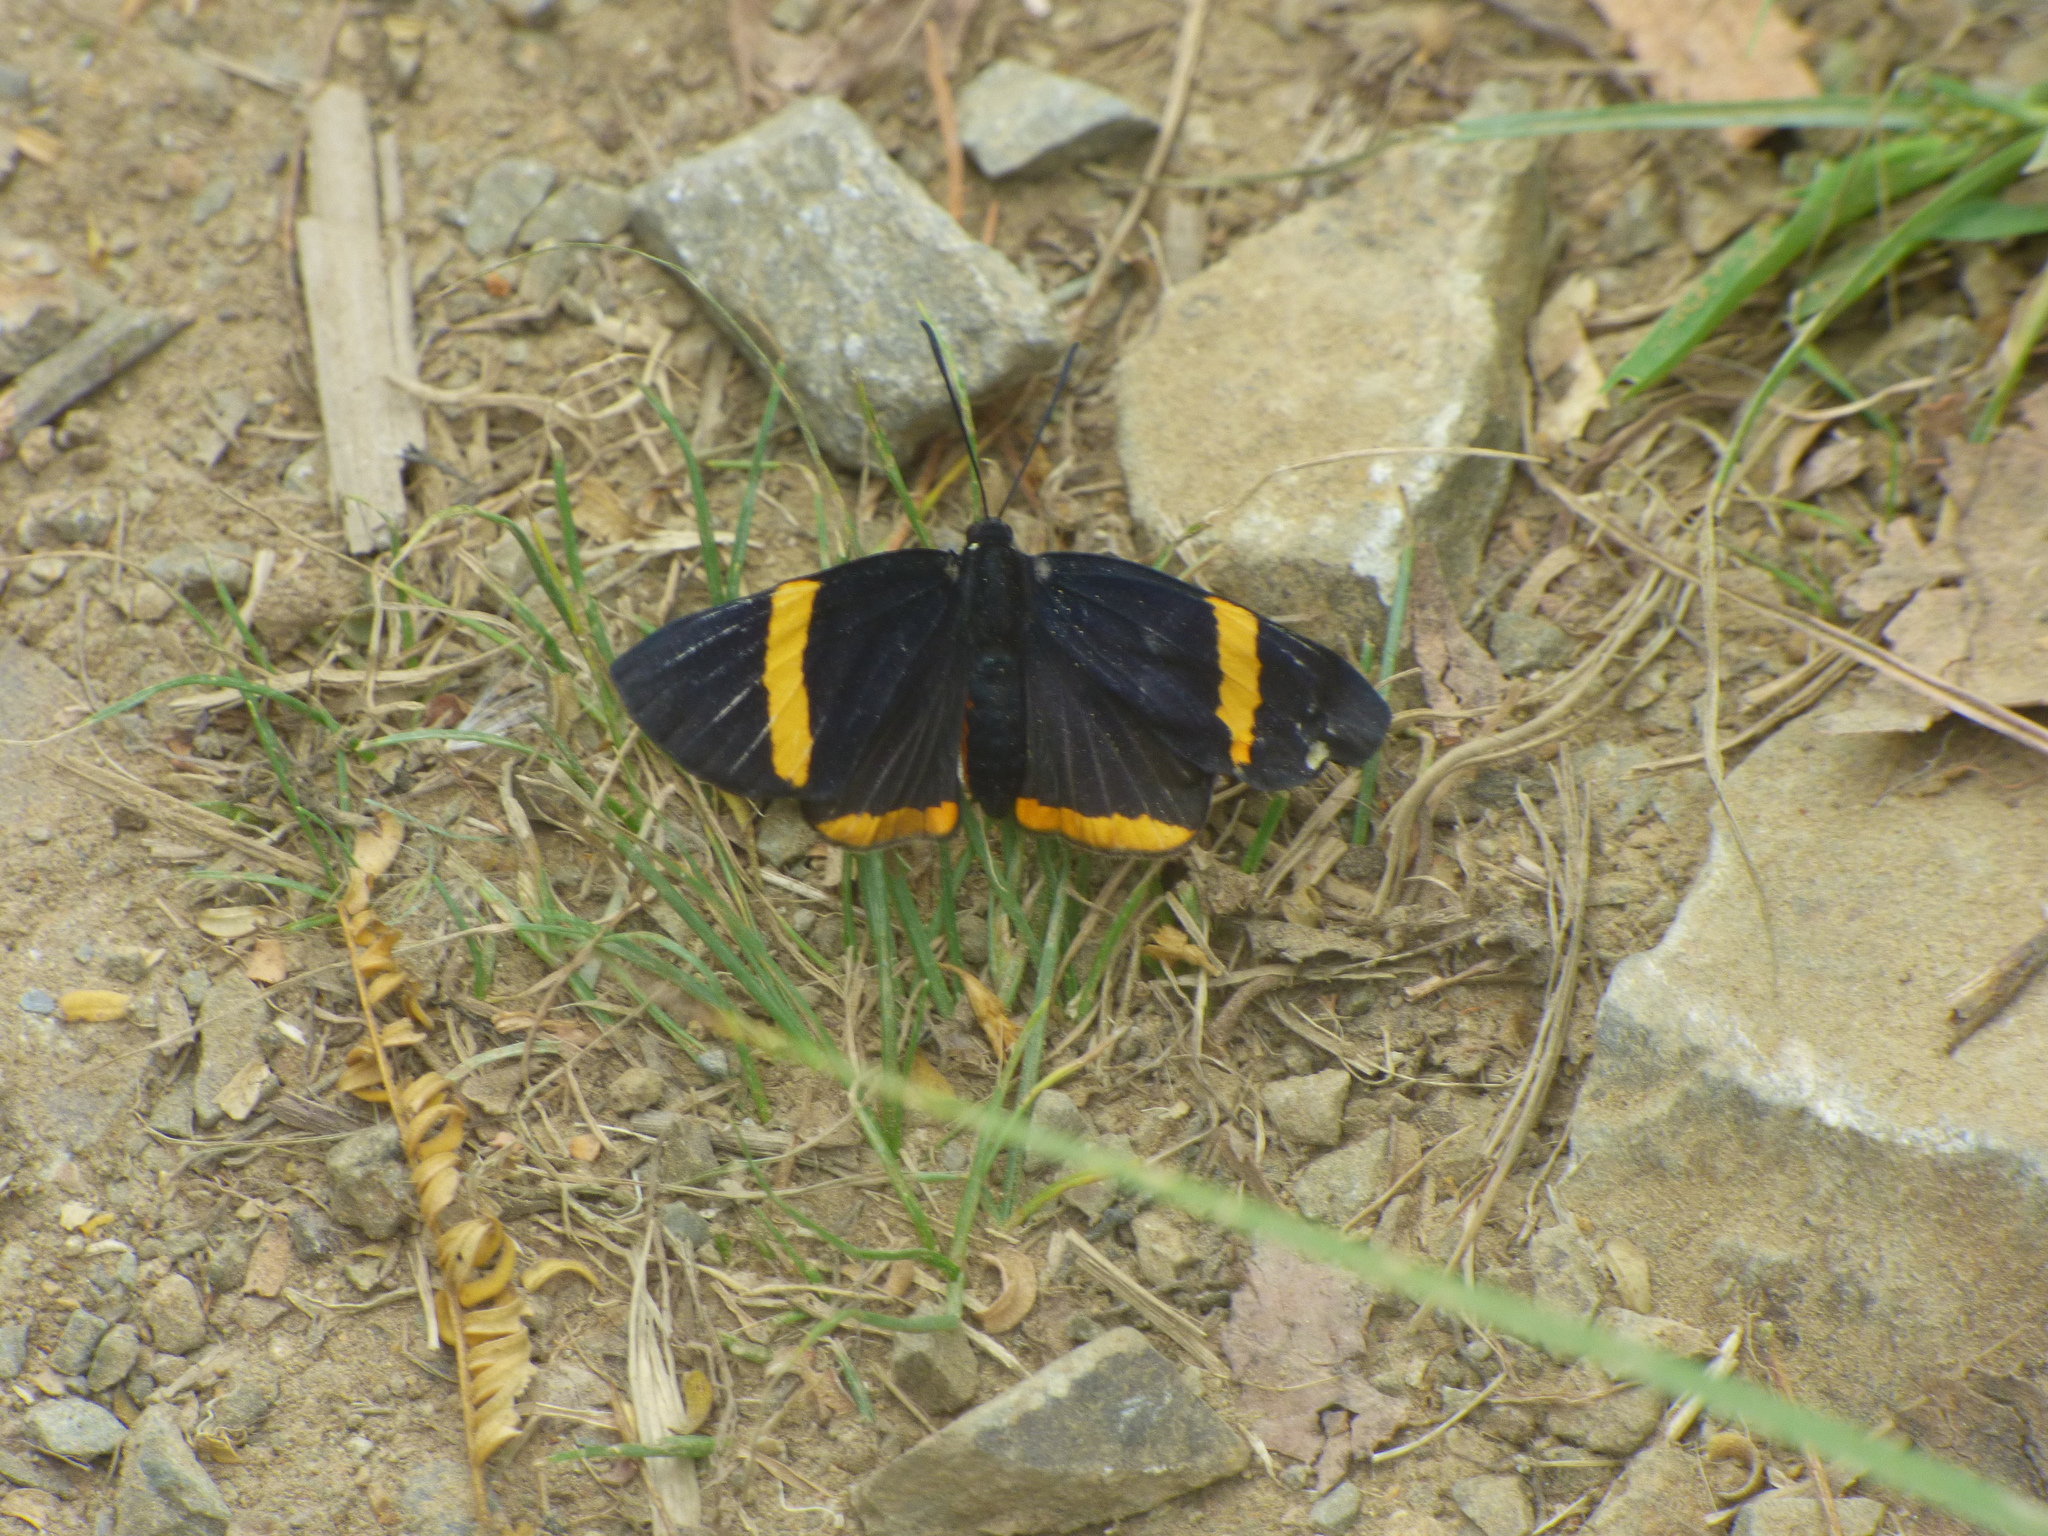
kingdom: Animalia
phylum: Arthropoda
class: Insecta
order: Lepidoptera
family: Lycaenidae
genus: Melanis
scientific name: Melanis
